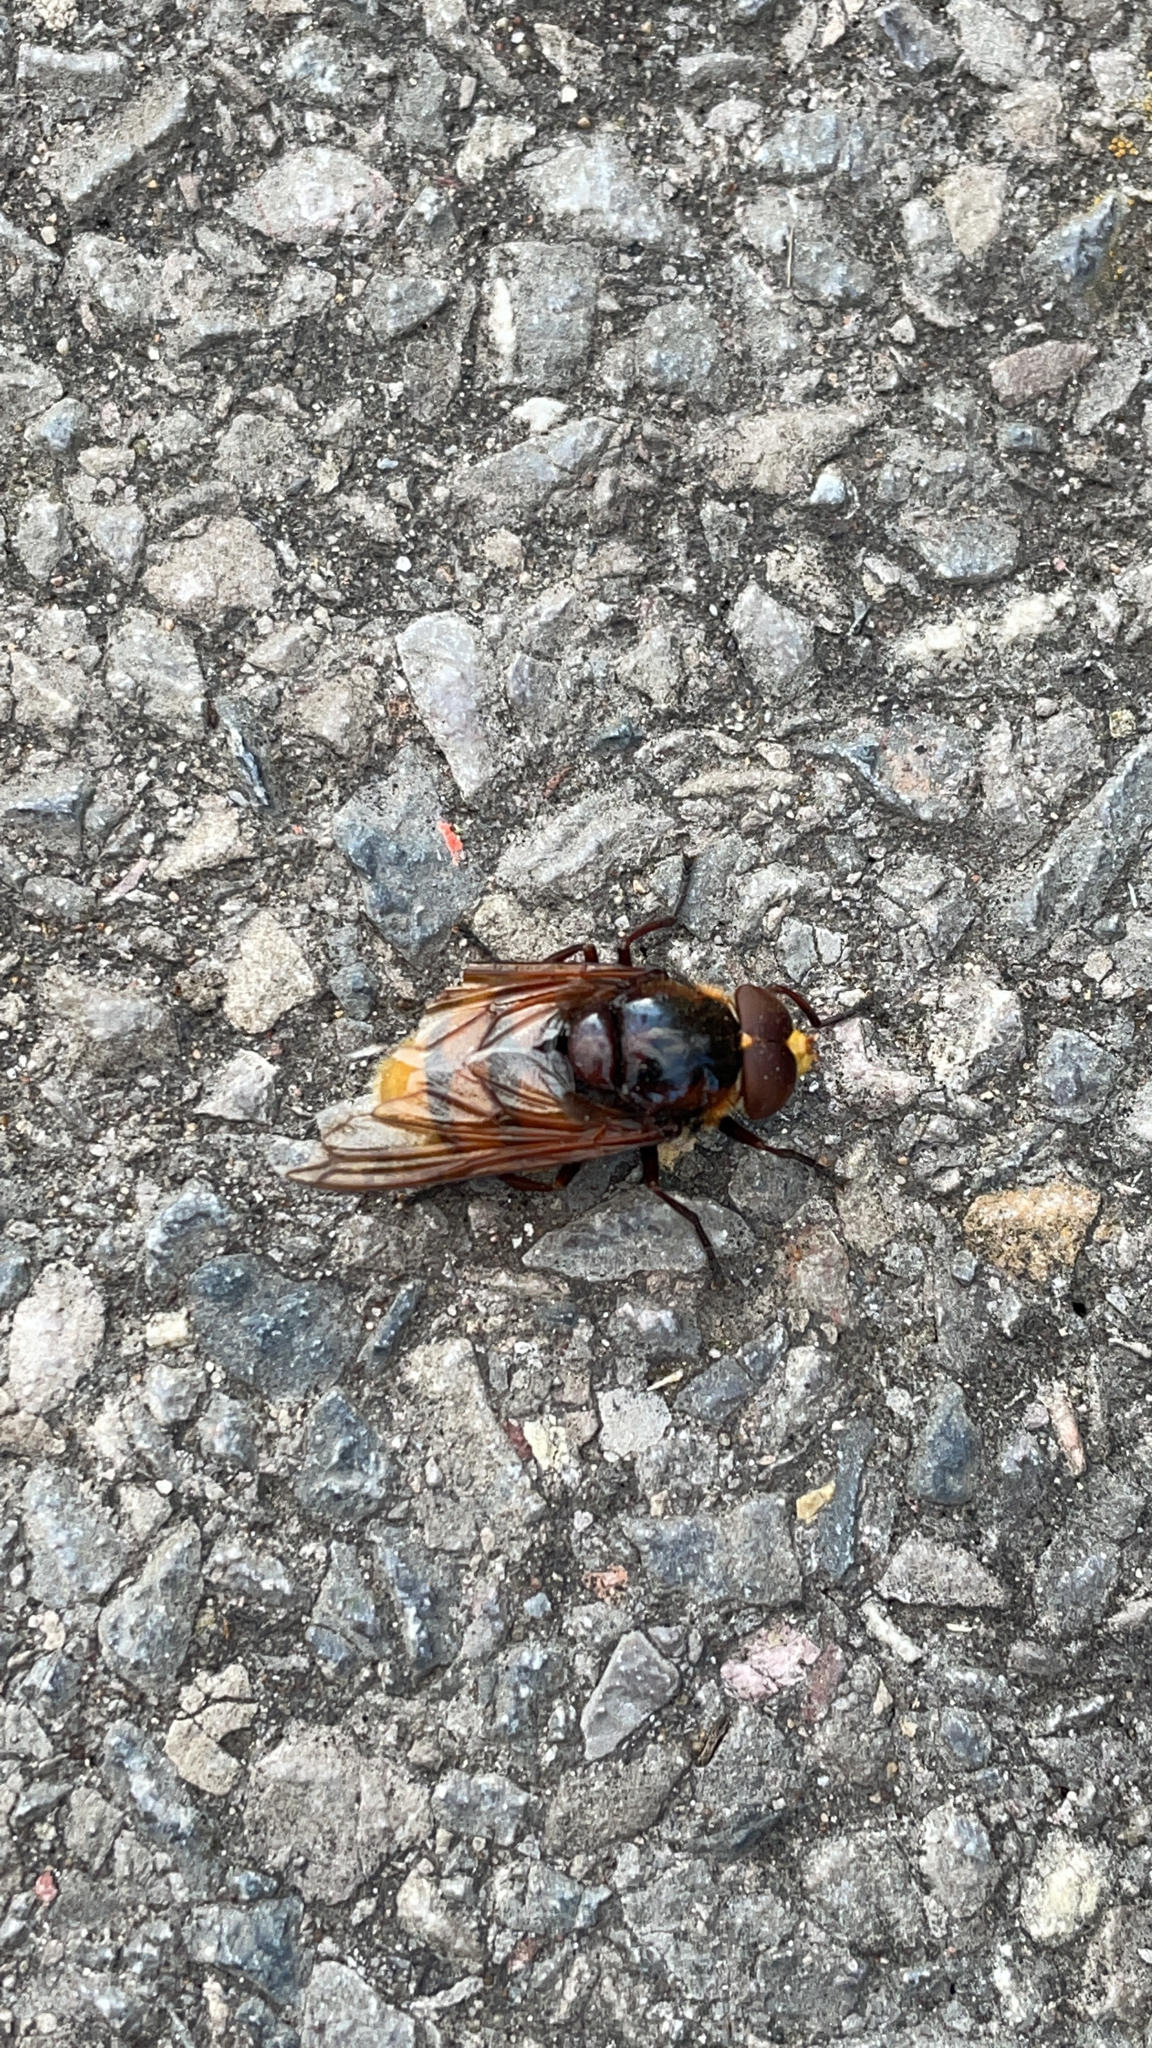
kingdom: Animalia
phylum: Arthropoda
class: Insecta
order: Diptera
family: Syrphidae
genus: Volucella
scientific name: Volucella zonaria
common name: Hornet hoverfly
